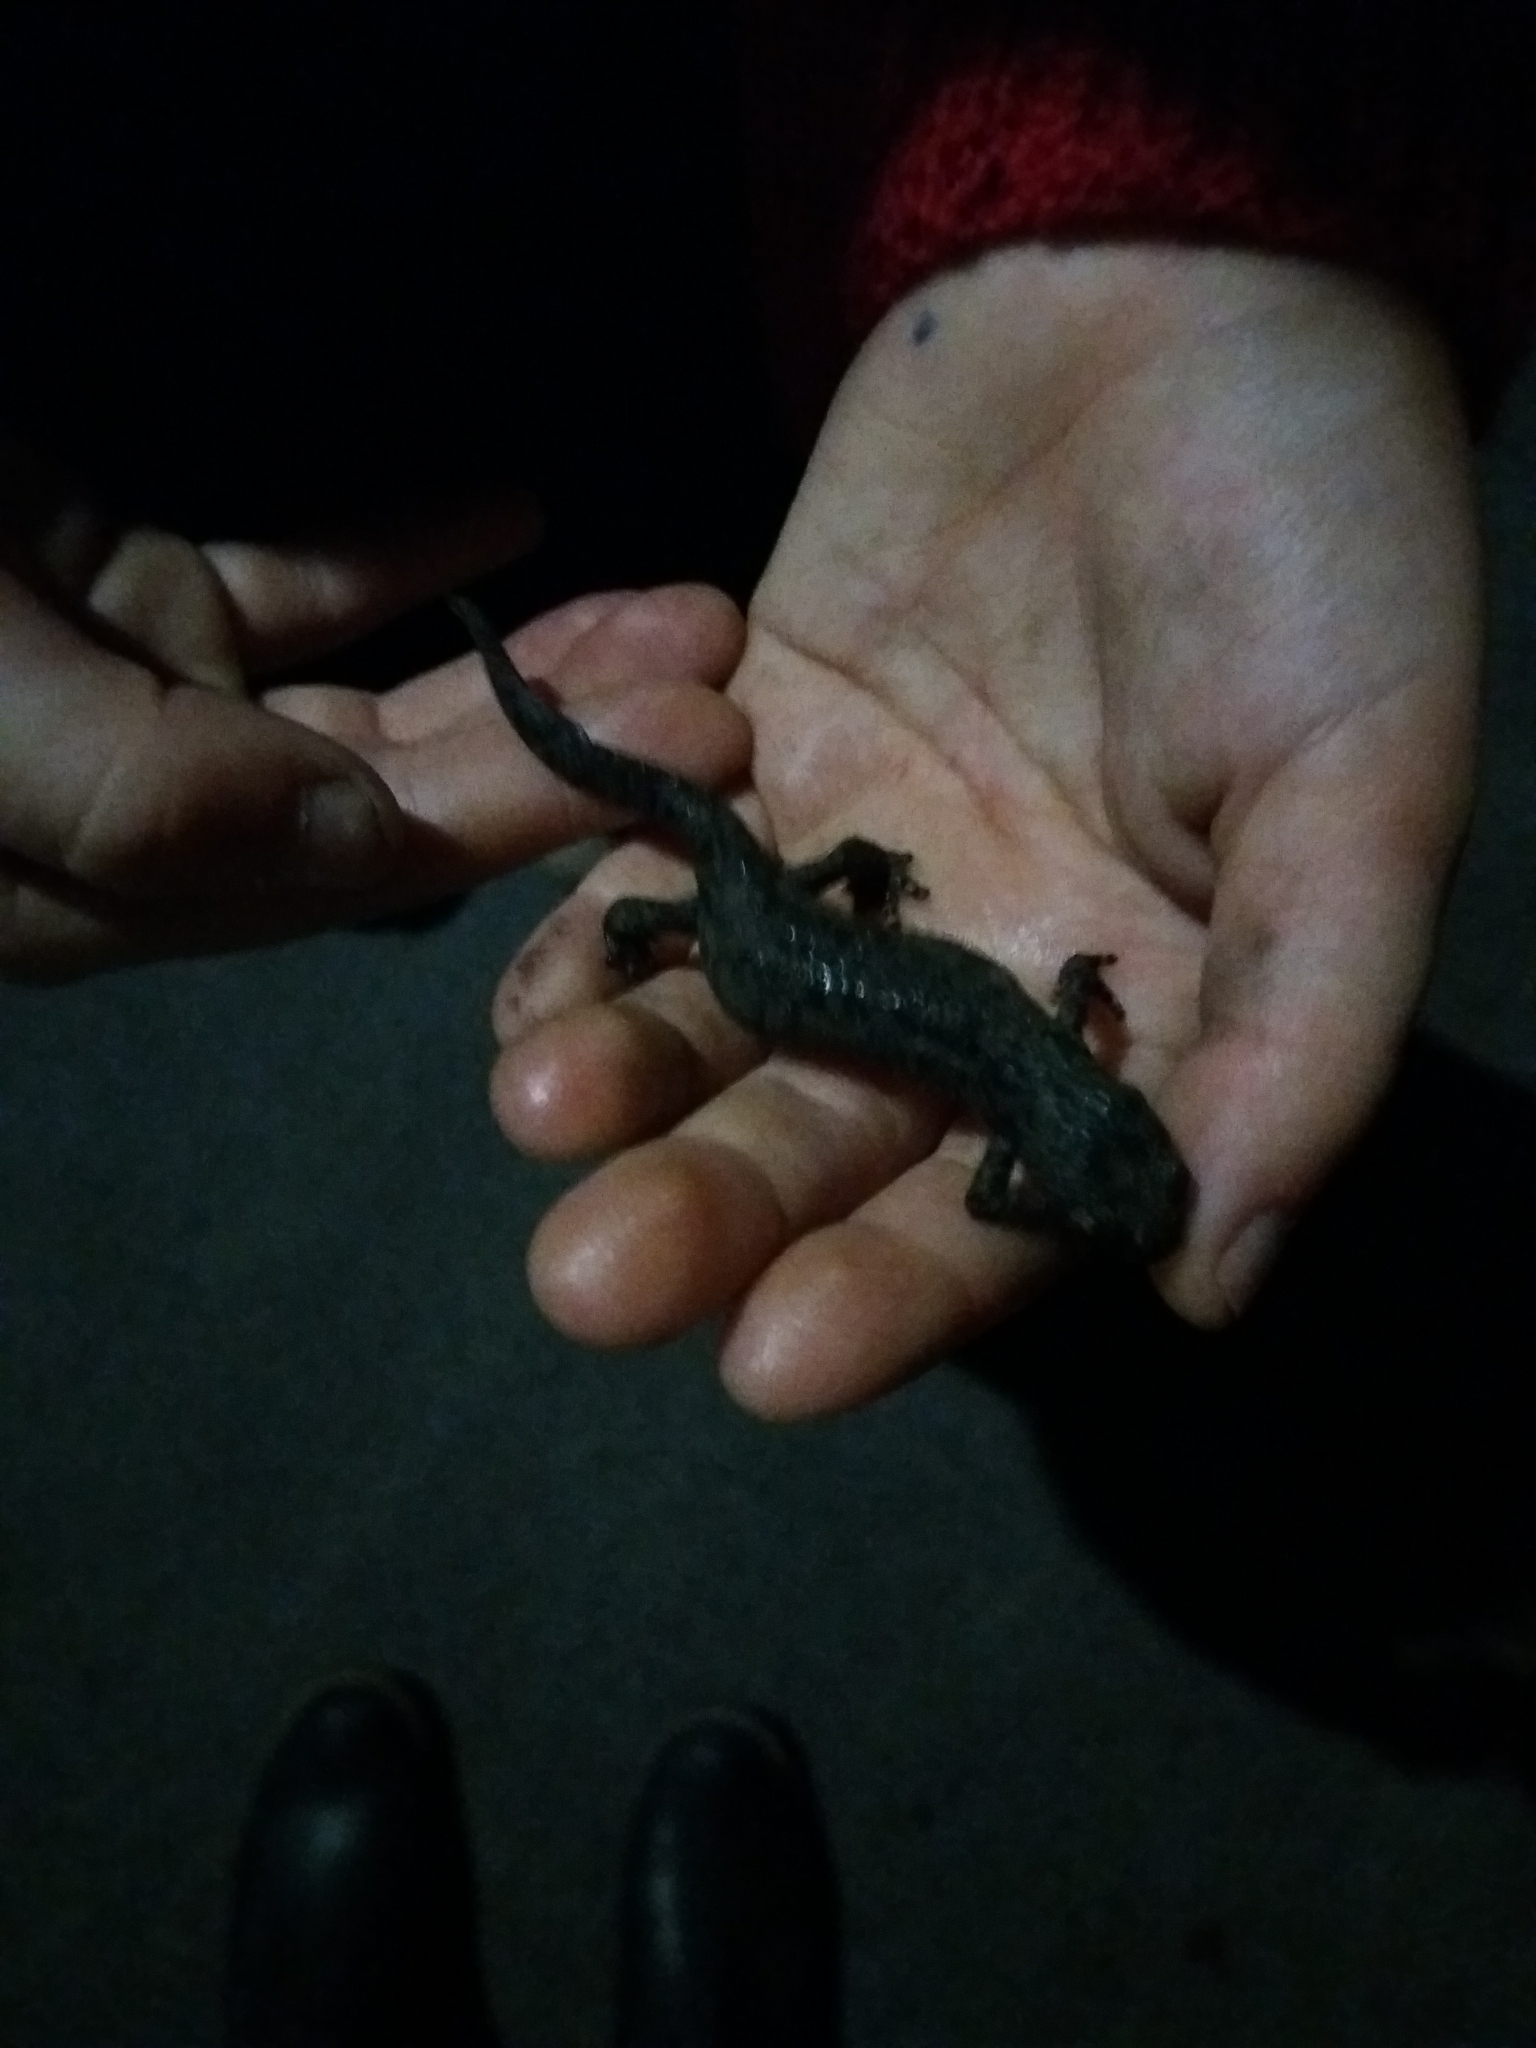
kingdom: Animalia
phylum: Chordata
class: Amphibia
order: Caudata
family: Salamandridae
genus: Ichthyosaura
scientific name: Ichthyosaura alpestris
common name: Alpine newt
